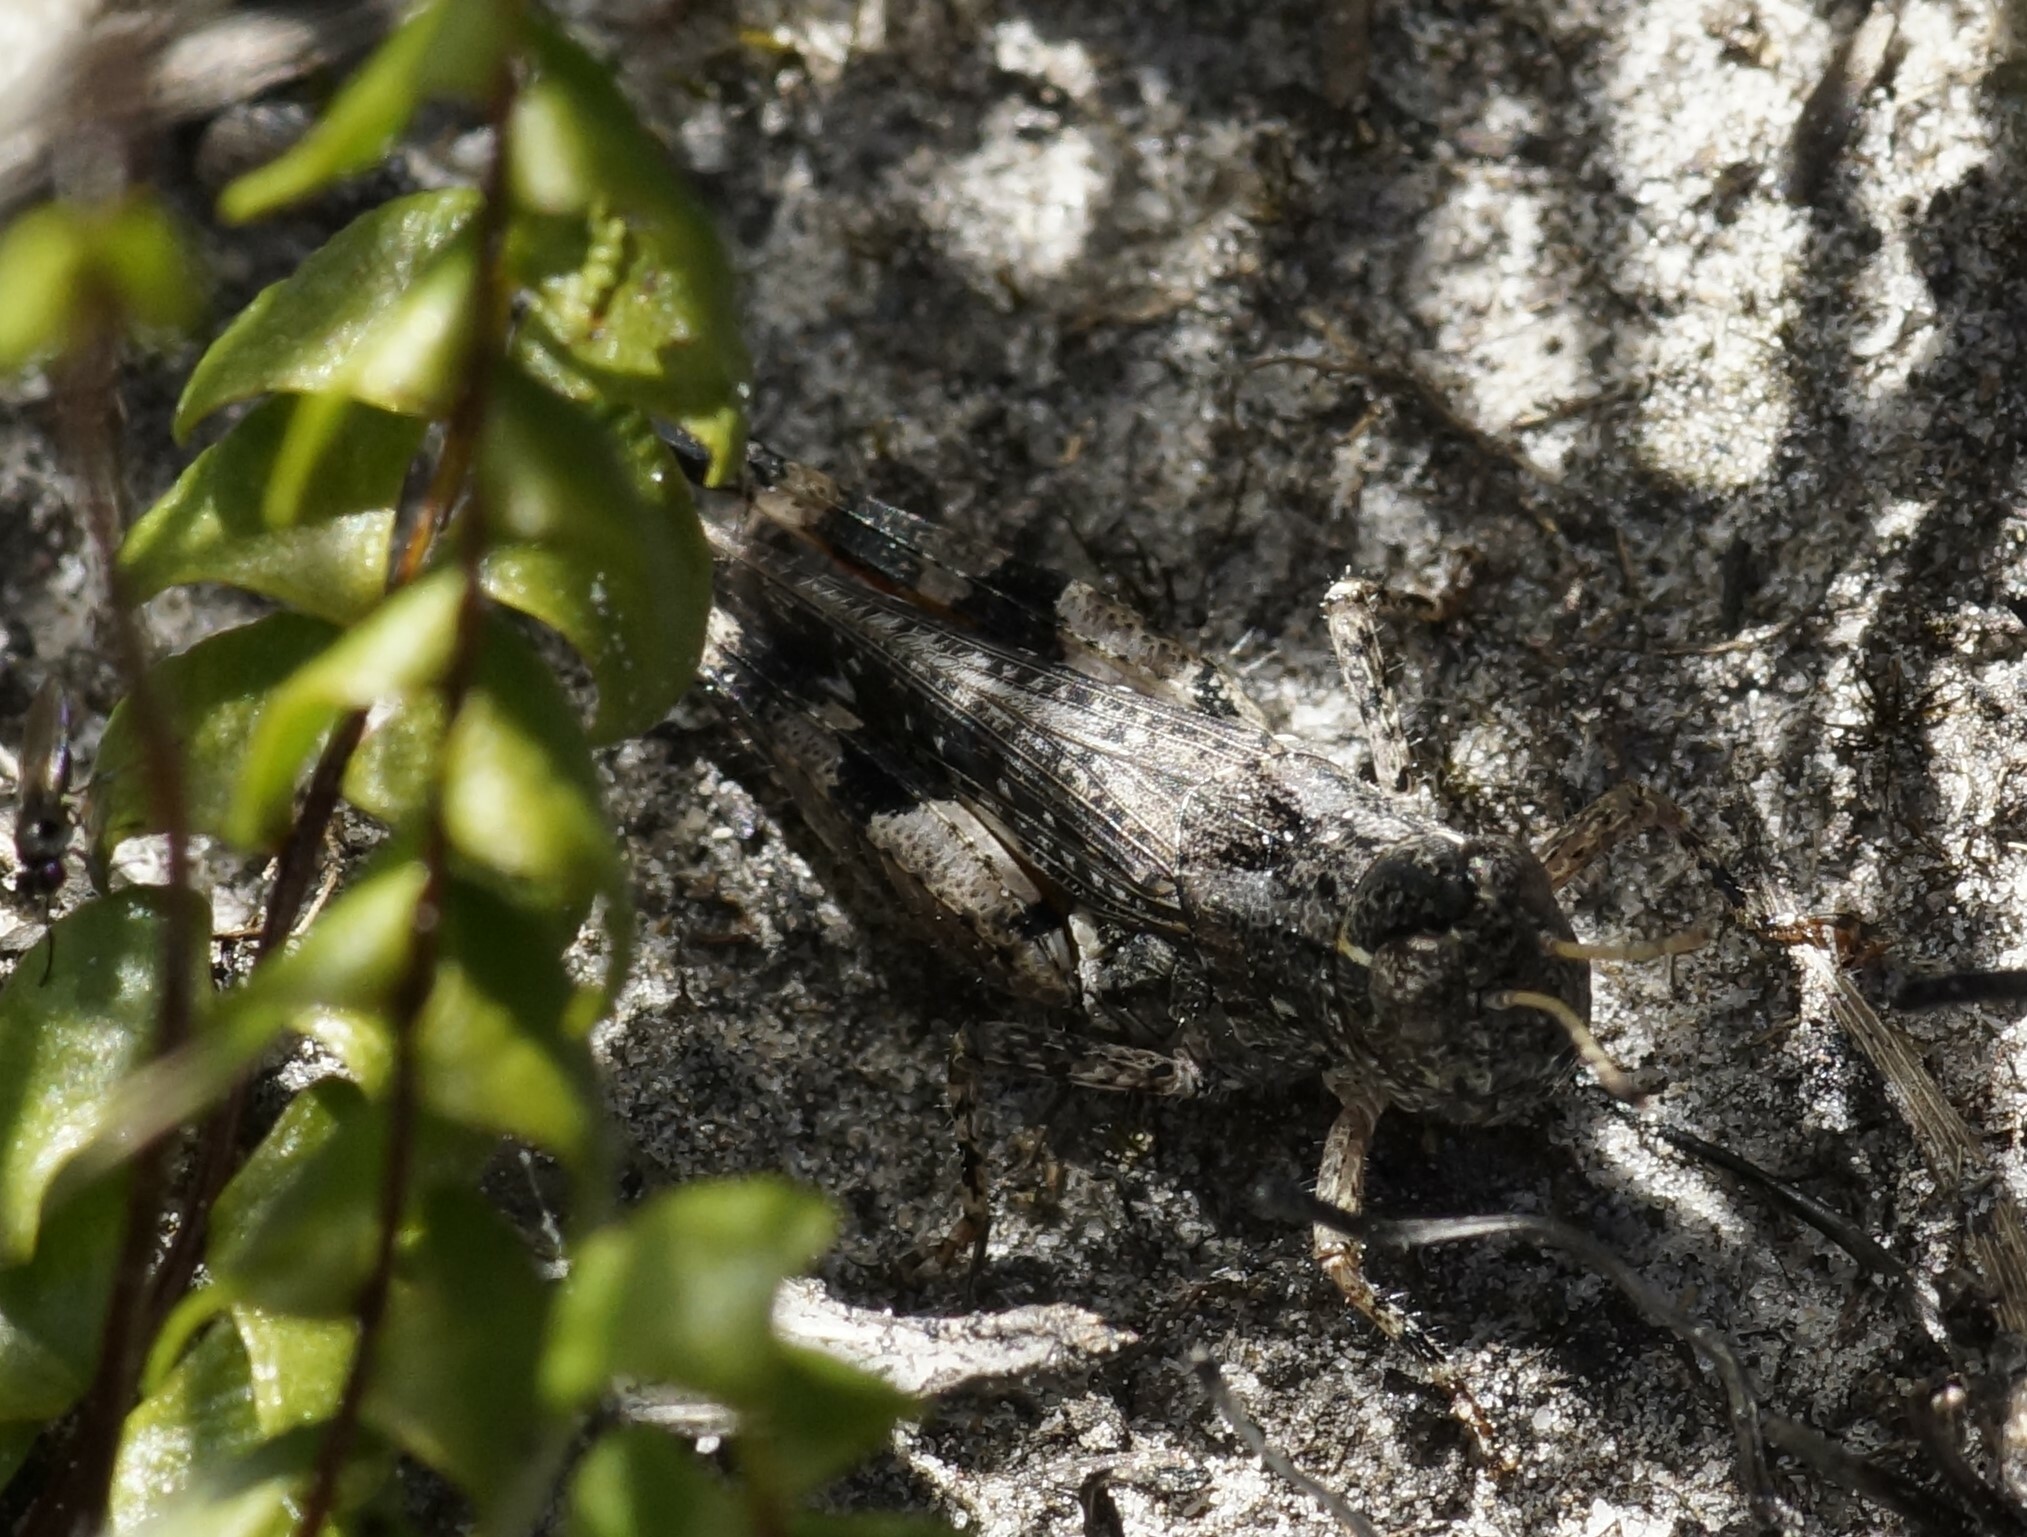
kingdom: Animalia
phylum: Arthropoda
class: Insecta
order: Orthoptera
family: Acrididae
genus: Exarna
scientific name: Exarna includens
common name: Red-legged exarna
